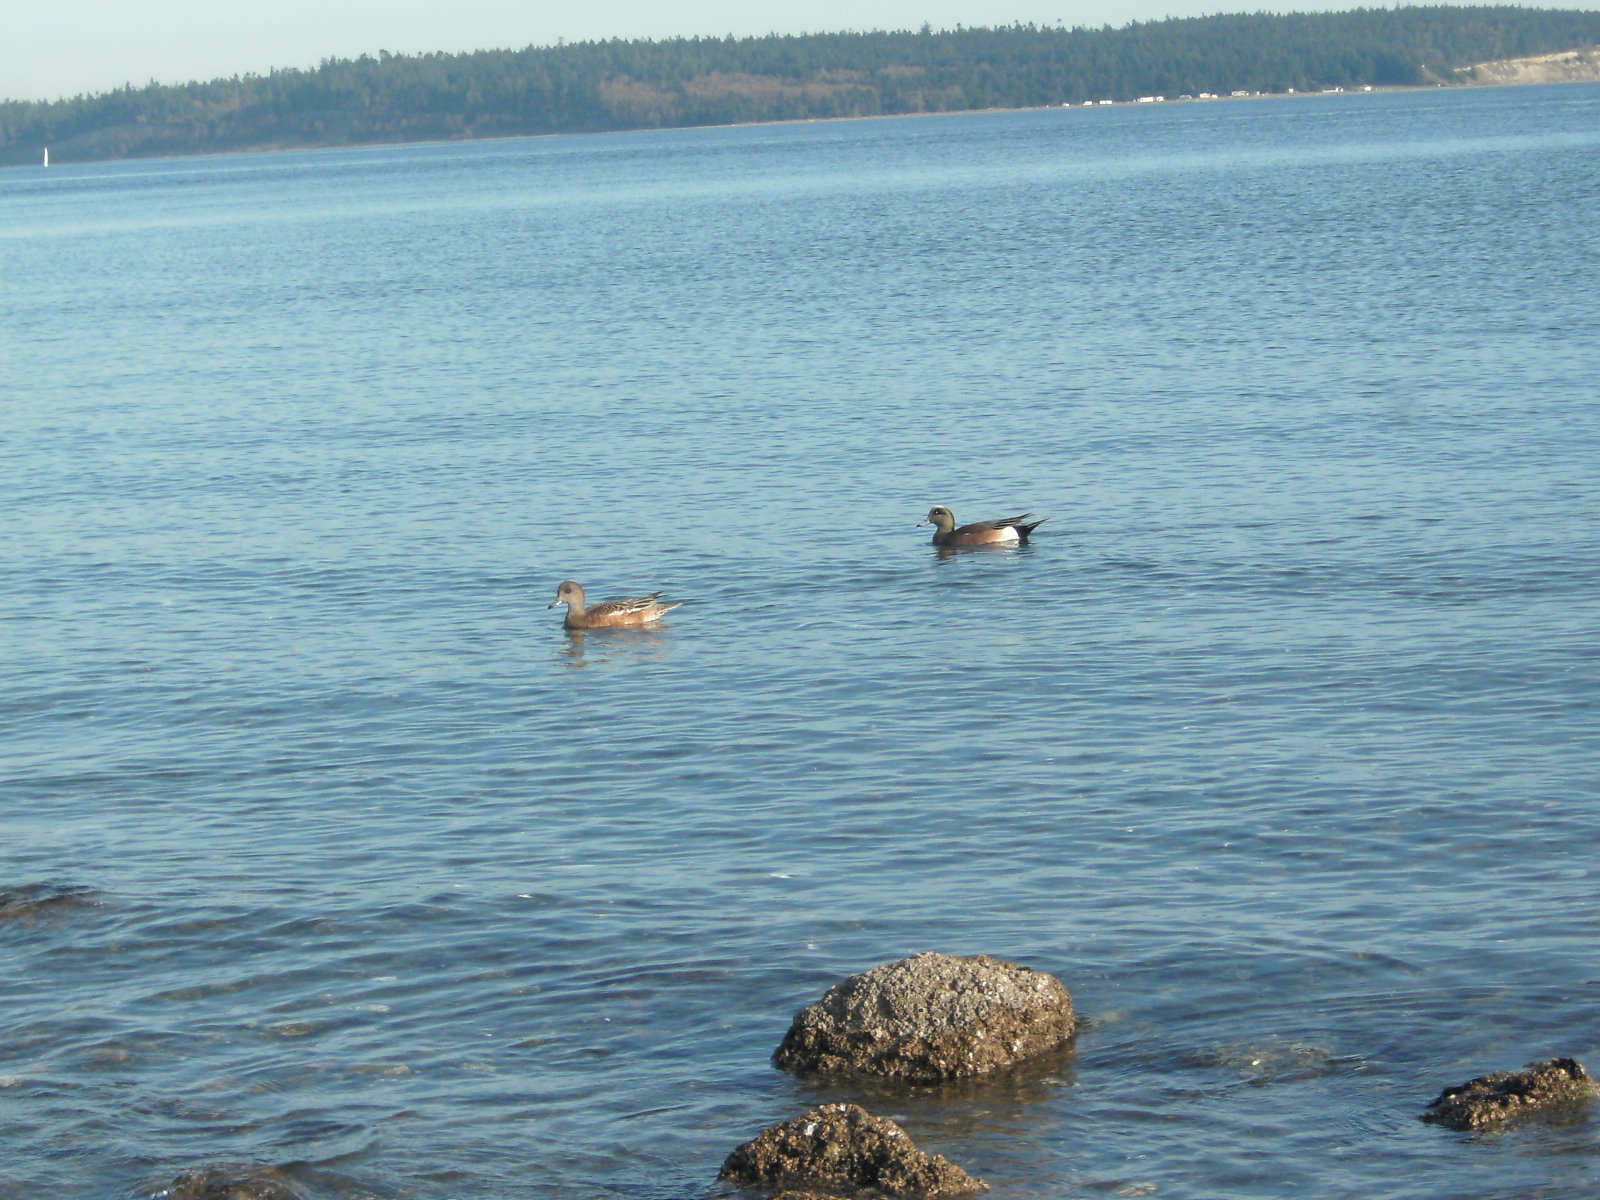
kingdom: Animalia
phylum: Chordata
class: Aves
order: Anseriformes
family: Anatidae
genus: Mareca
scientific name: Mareca americana
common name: American wigeon
